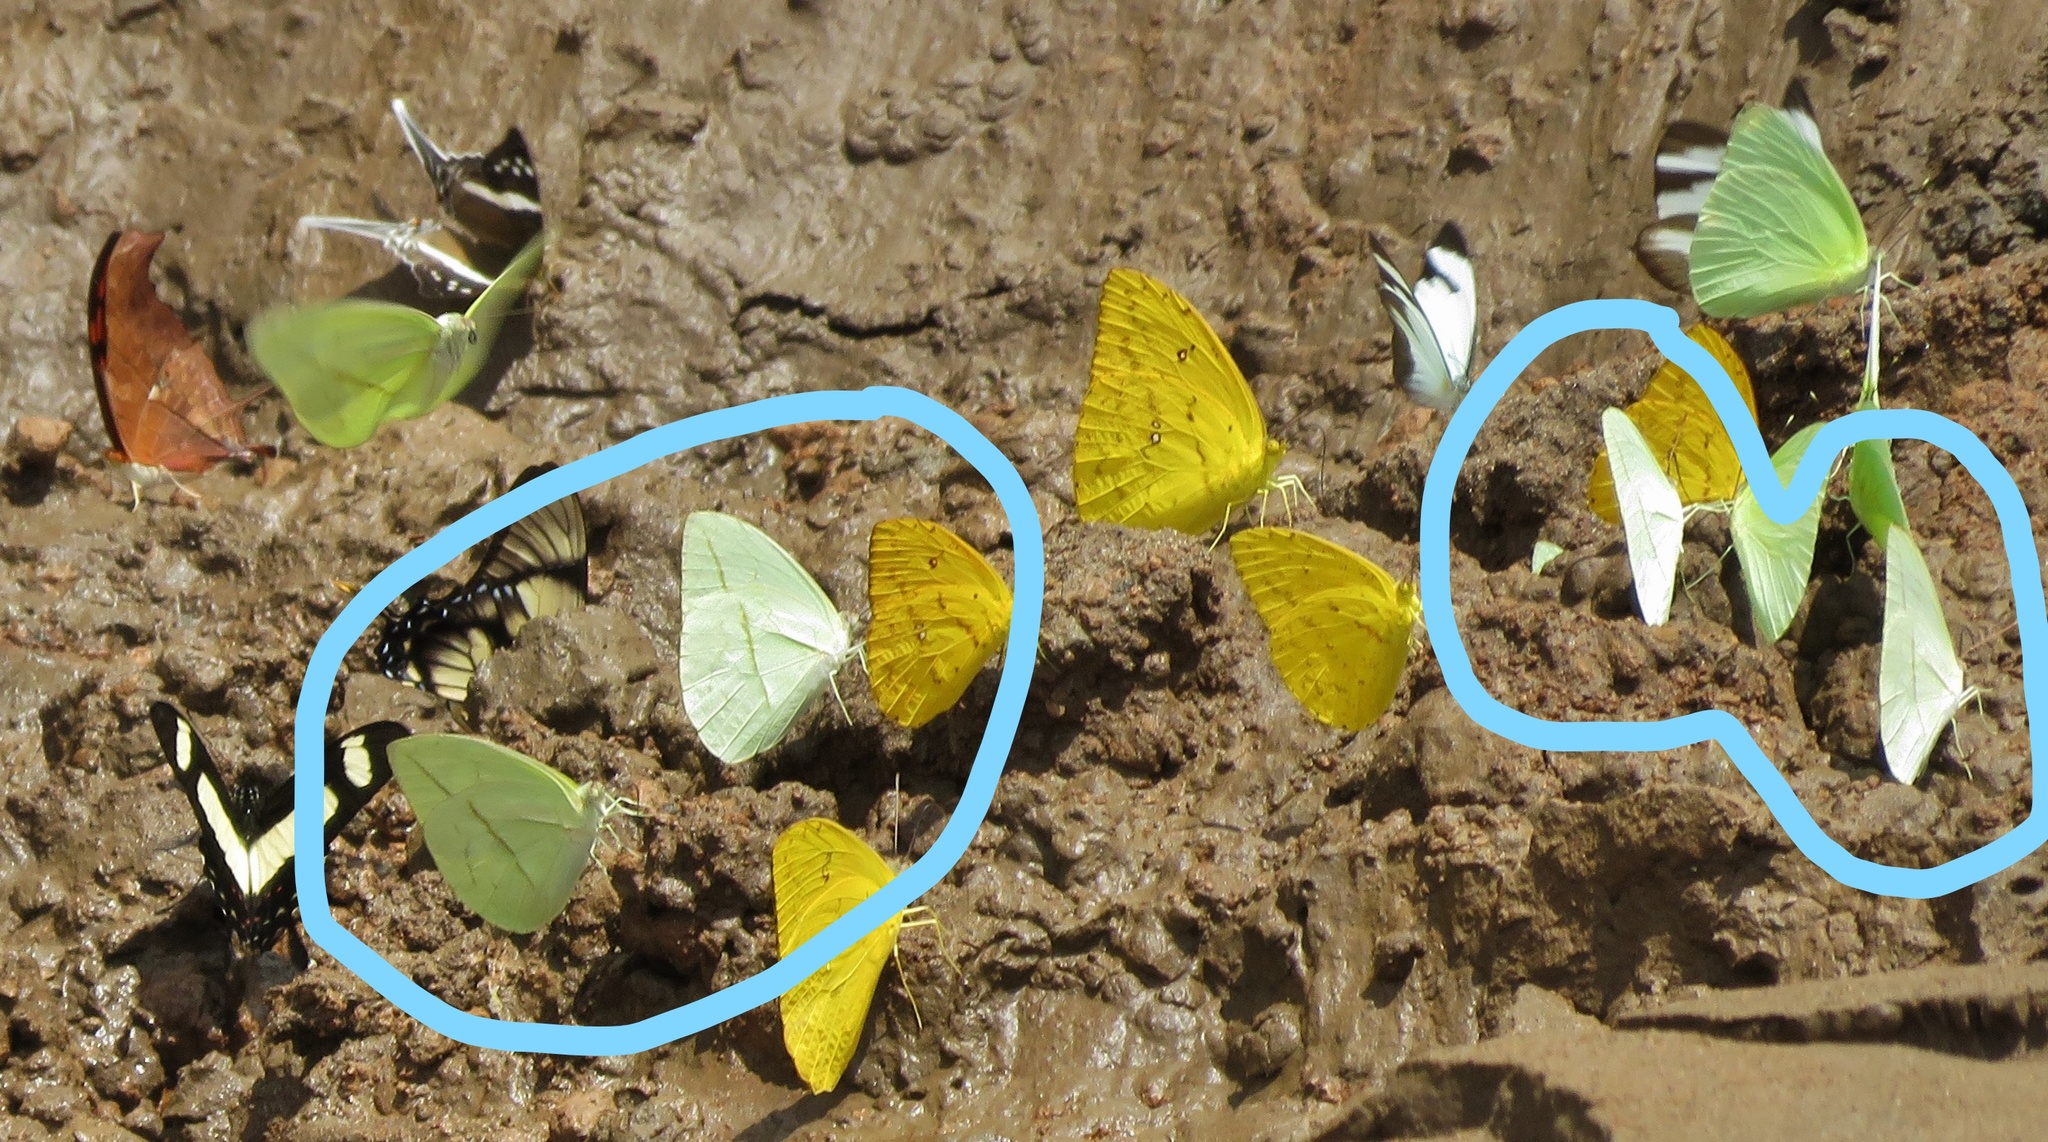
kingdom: Animalia
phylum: Arthropoda
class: Insecta
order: Lepidoptera
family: Pieridae
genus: Rhabdodryas
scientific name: Rhabdodryas trite
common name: Straight-lined sulphur
